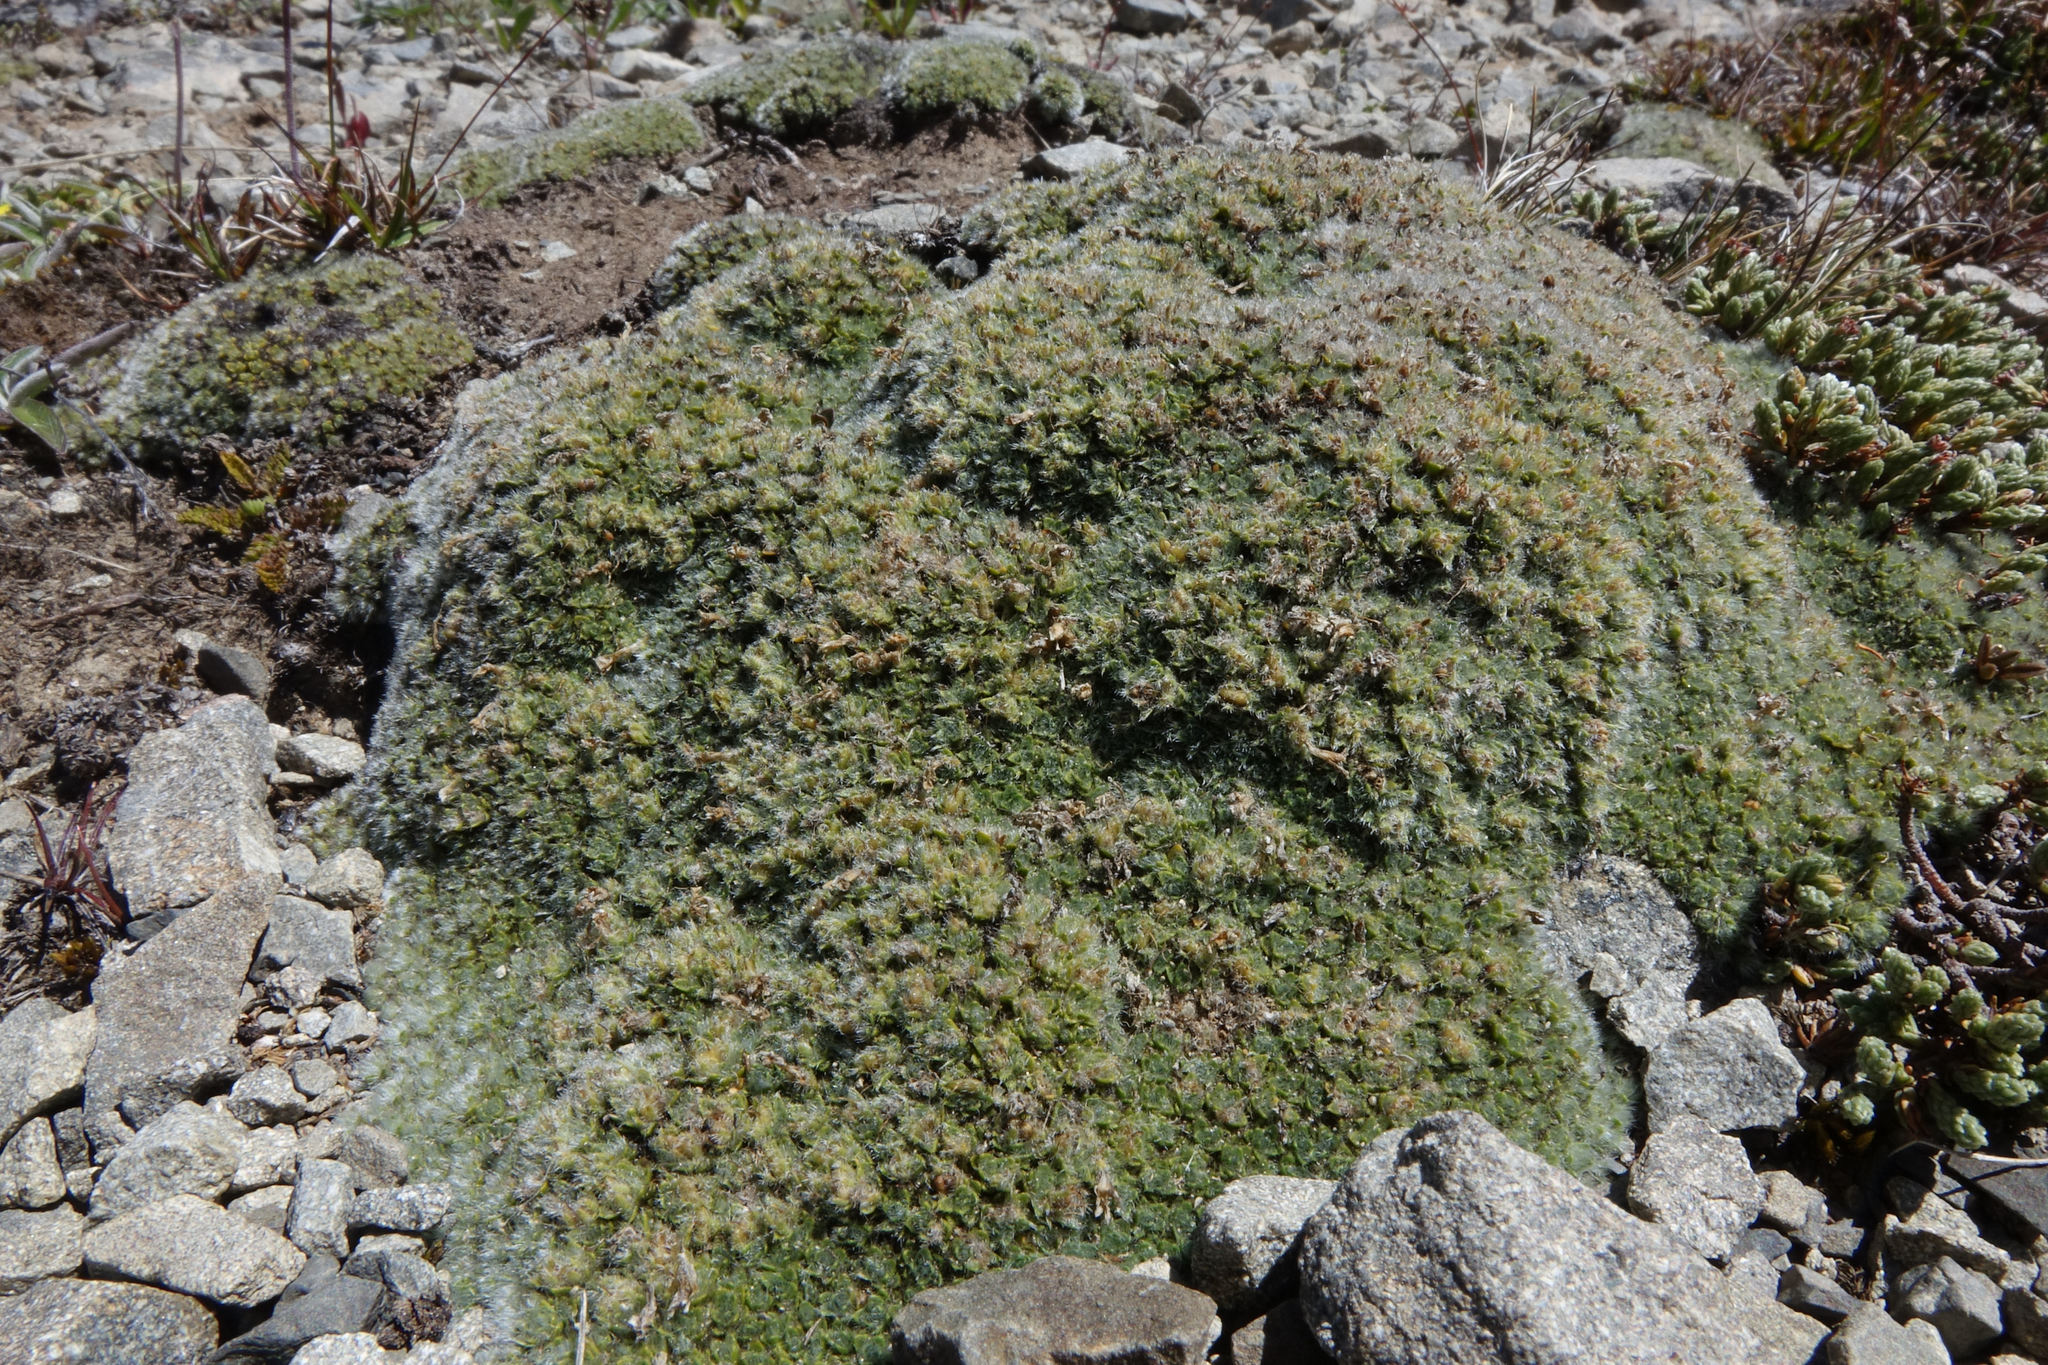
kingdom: Plantae
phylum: Tracheophyta
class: Magnoliopsida
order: Lamiales
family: Plantaginaceae
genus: Veronica
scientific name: Veronica pulvinaris
